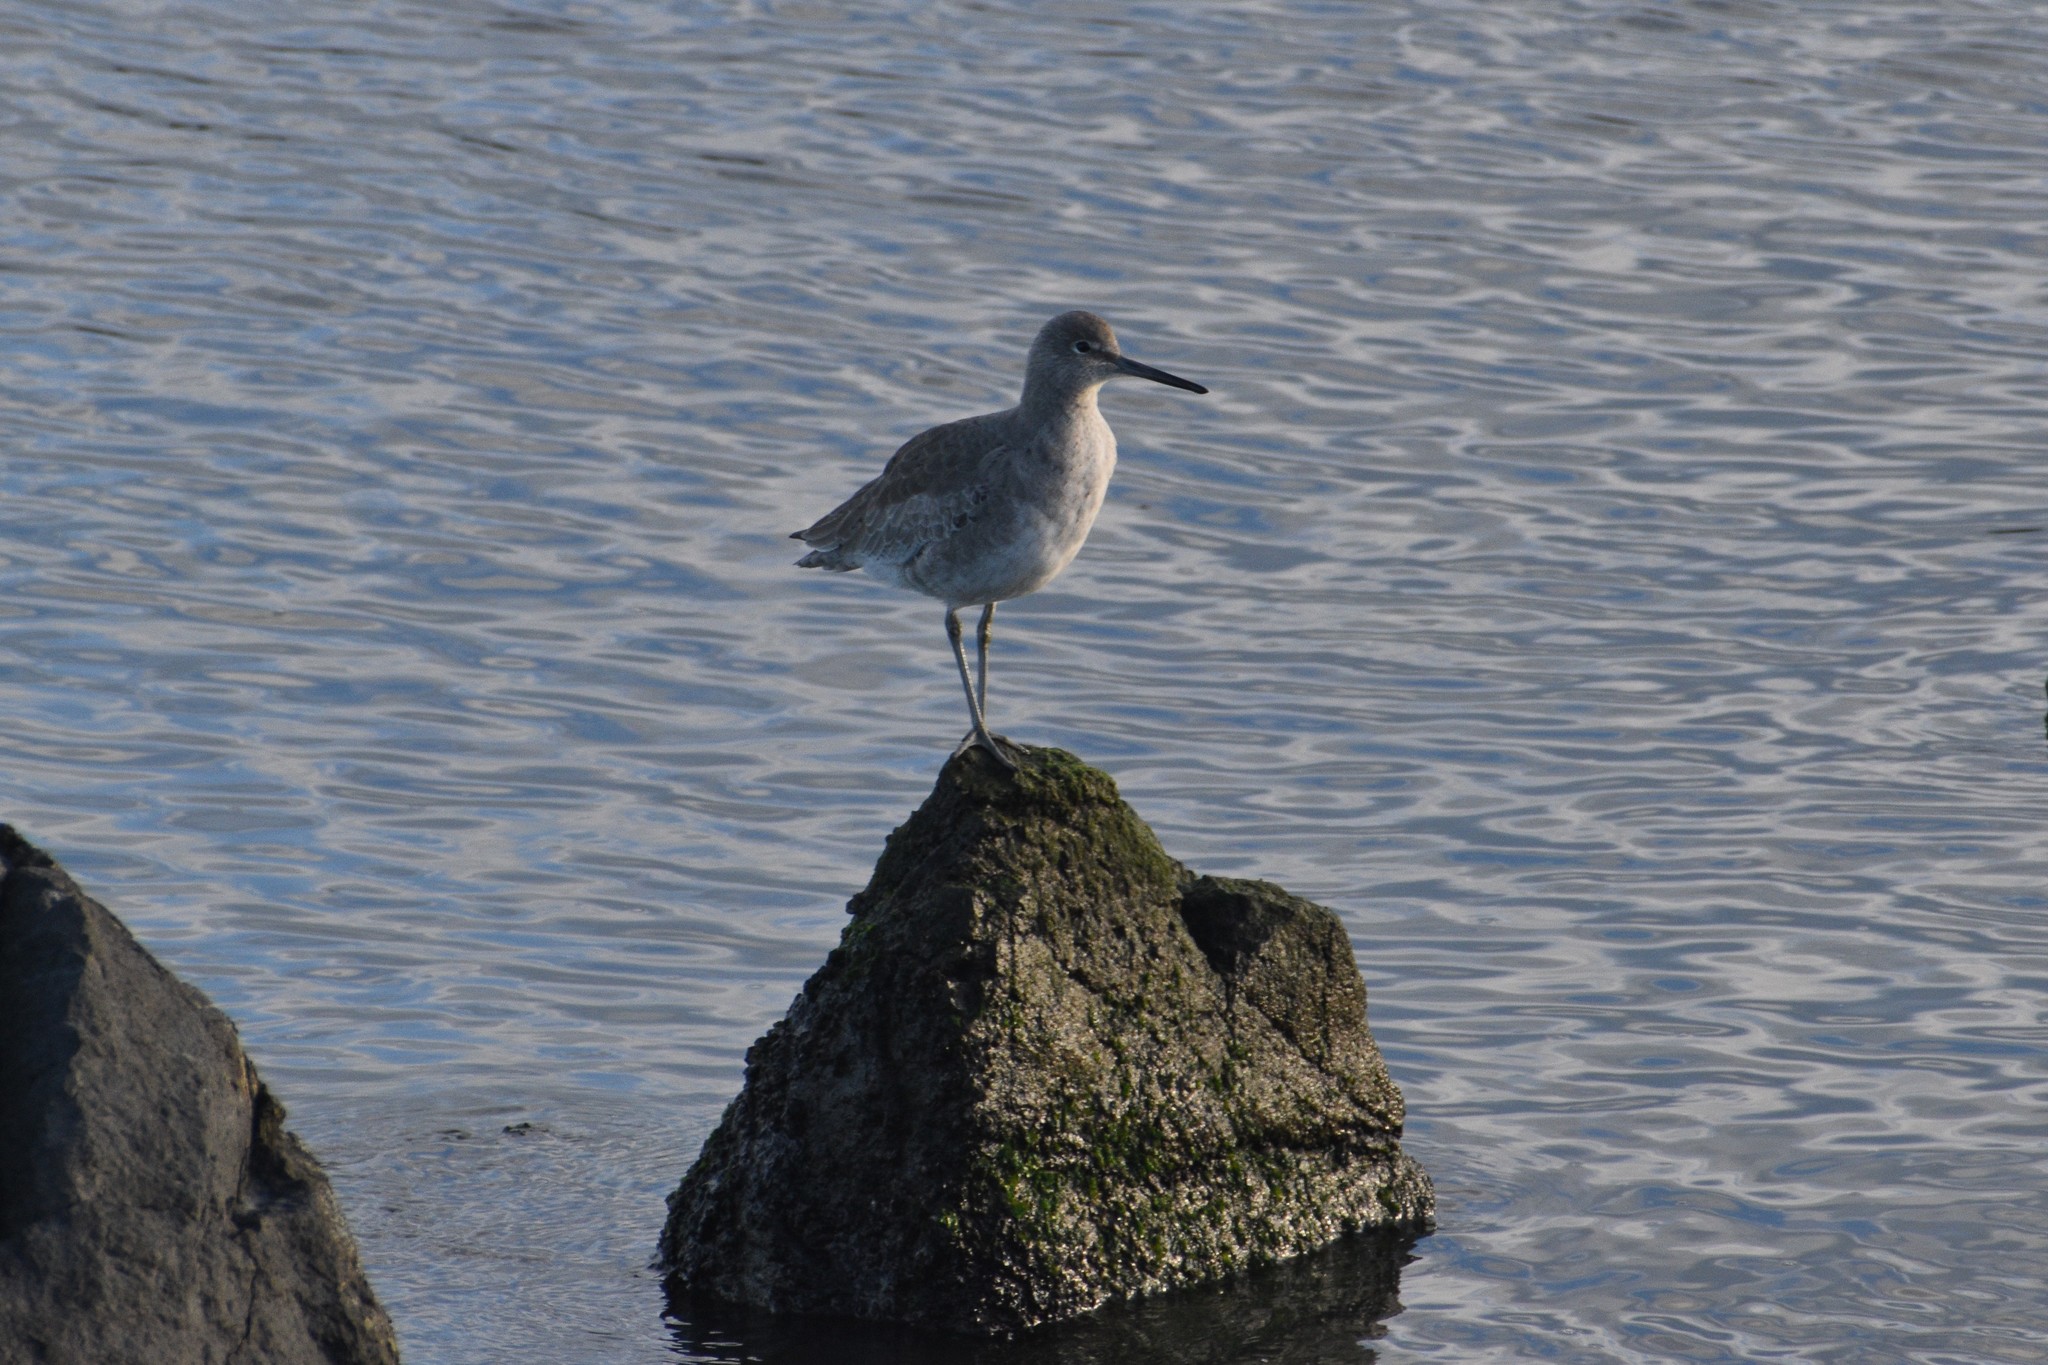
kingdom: Animalia
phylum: Chordata
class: Aves
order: Charadriiformes
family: Scolopacidae
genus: Tringa
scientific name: Tringa semipalmata
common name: Willet
